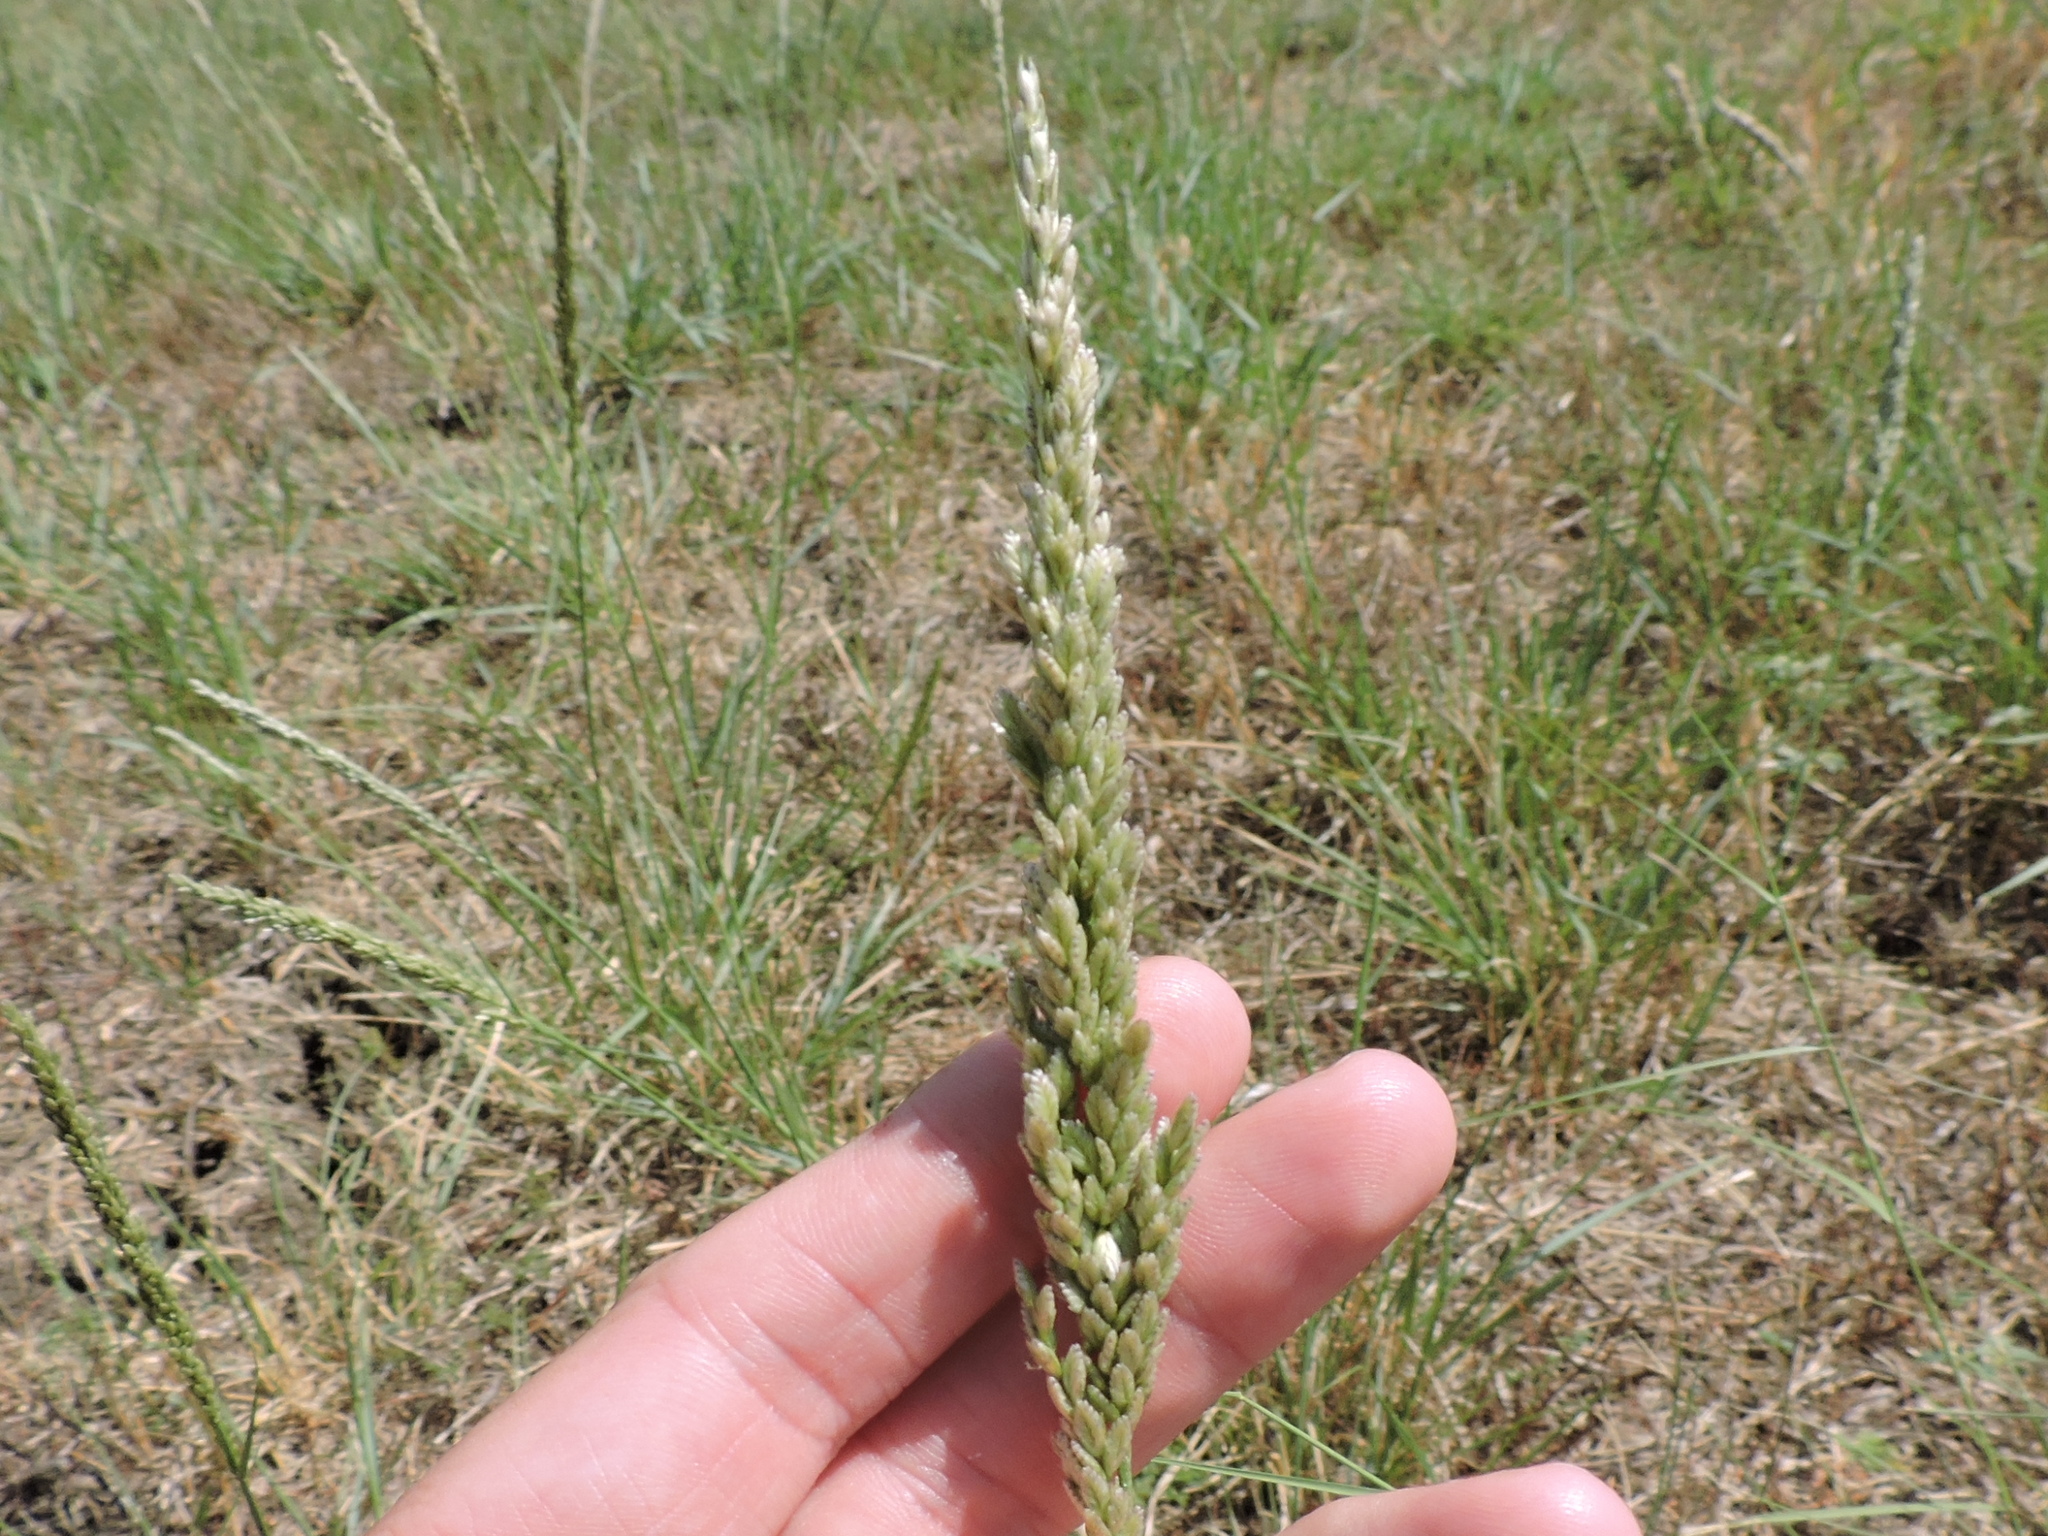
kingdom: Plantae
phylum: Tracheophyta
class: Liliopsida
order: Poales
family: Poaceae
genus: Tridens
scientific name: Tridens albescens
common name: White tridens
